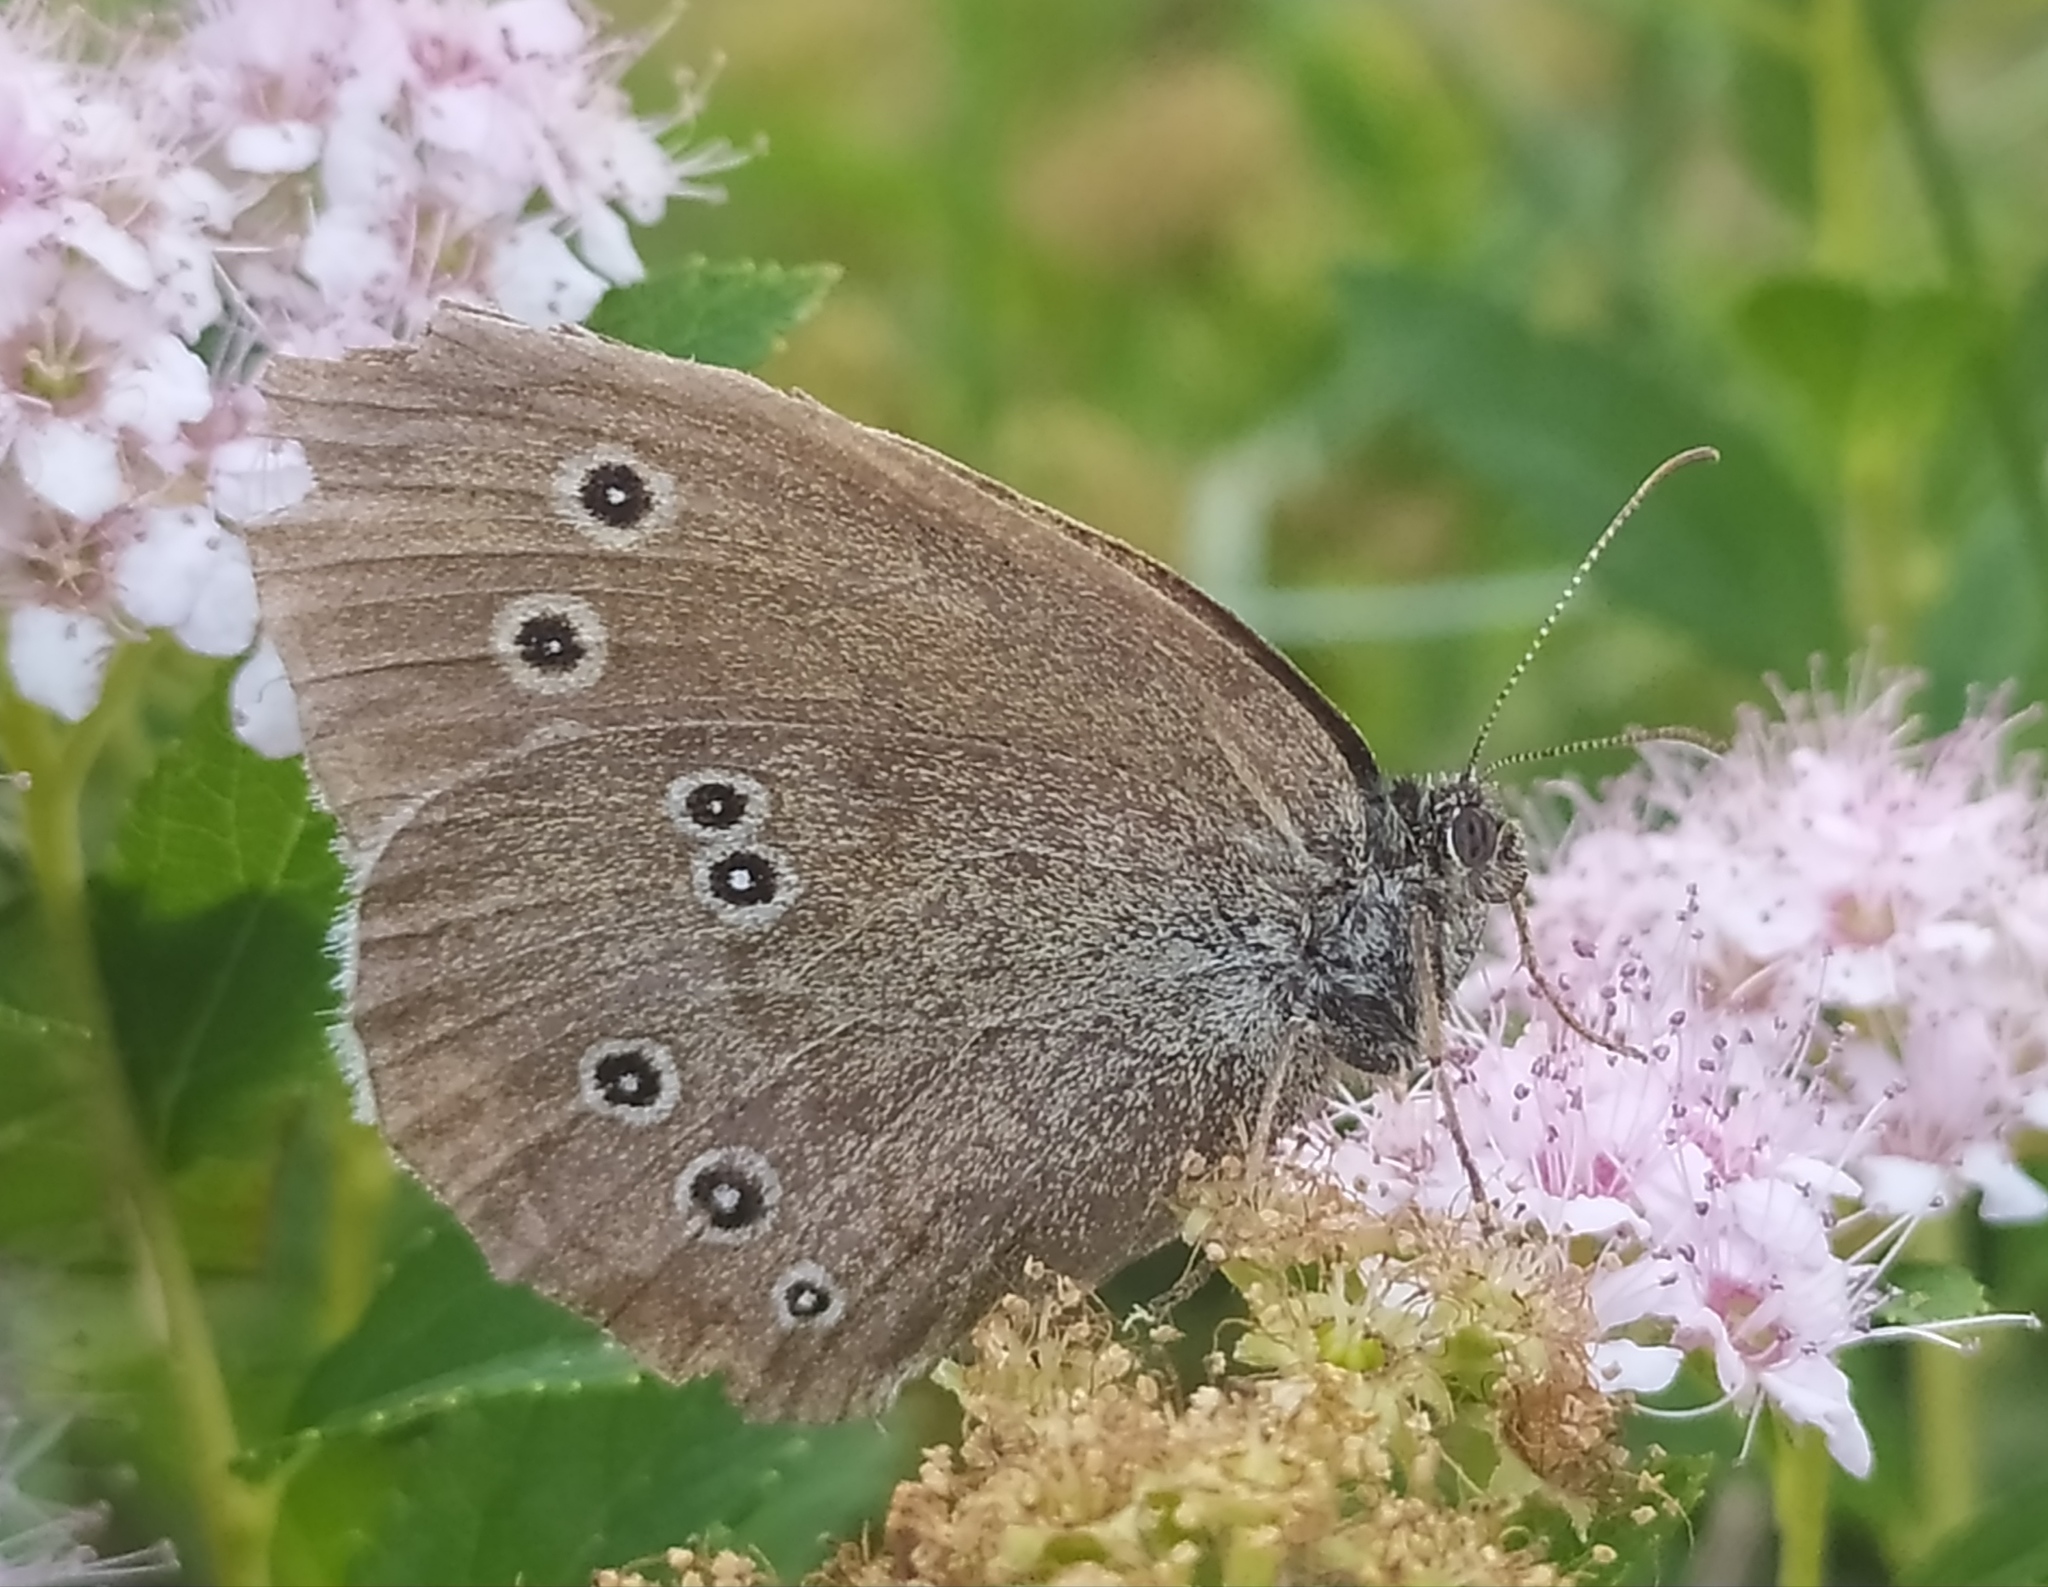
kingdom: Animalia
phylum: Arthropoda
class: Insecta
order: Lepidoptera
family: Nymphalidae
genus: Aphantopus
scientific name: Aphantopus hyperantus
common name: Ringlet
